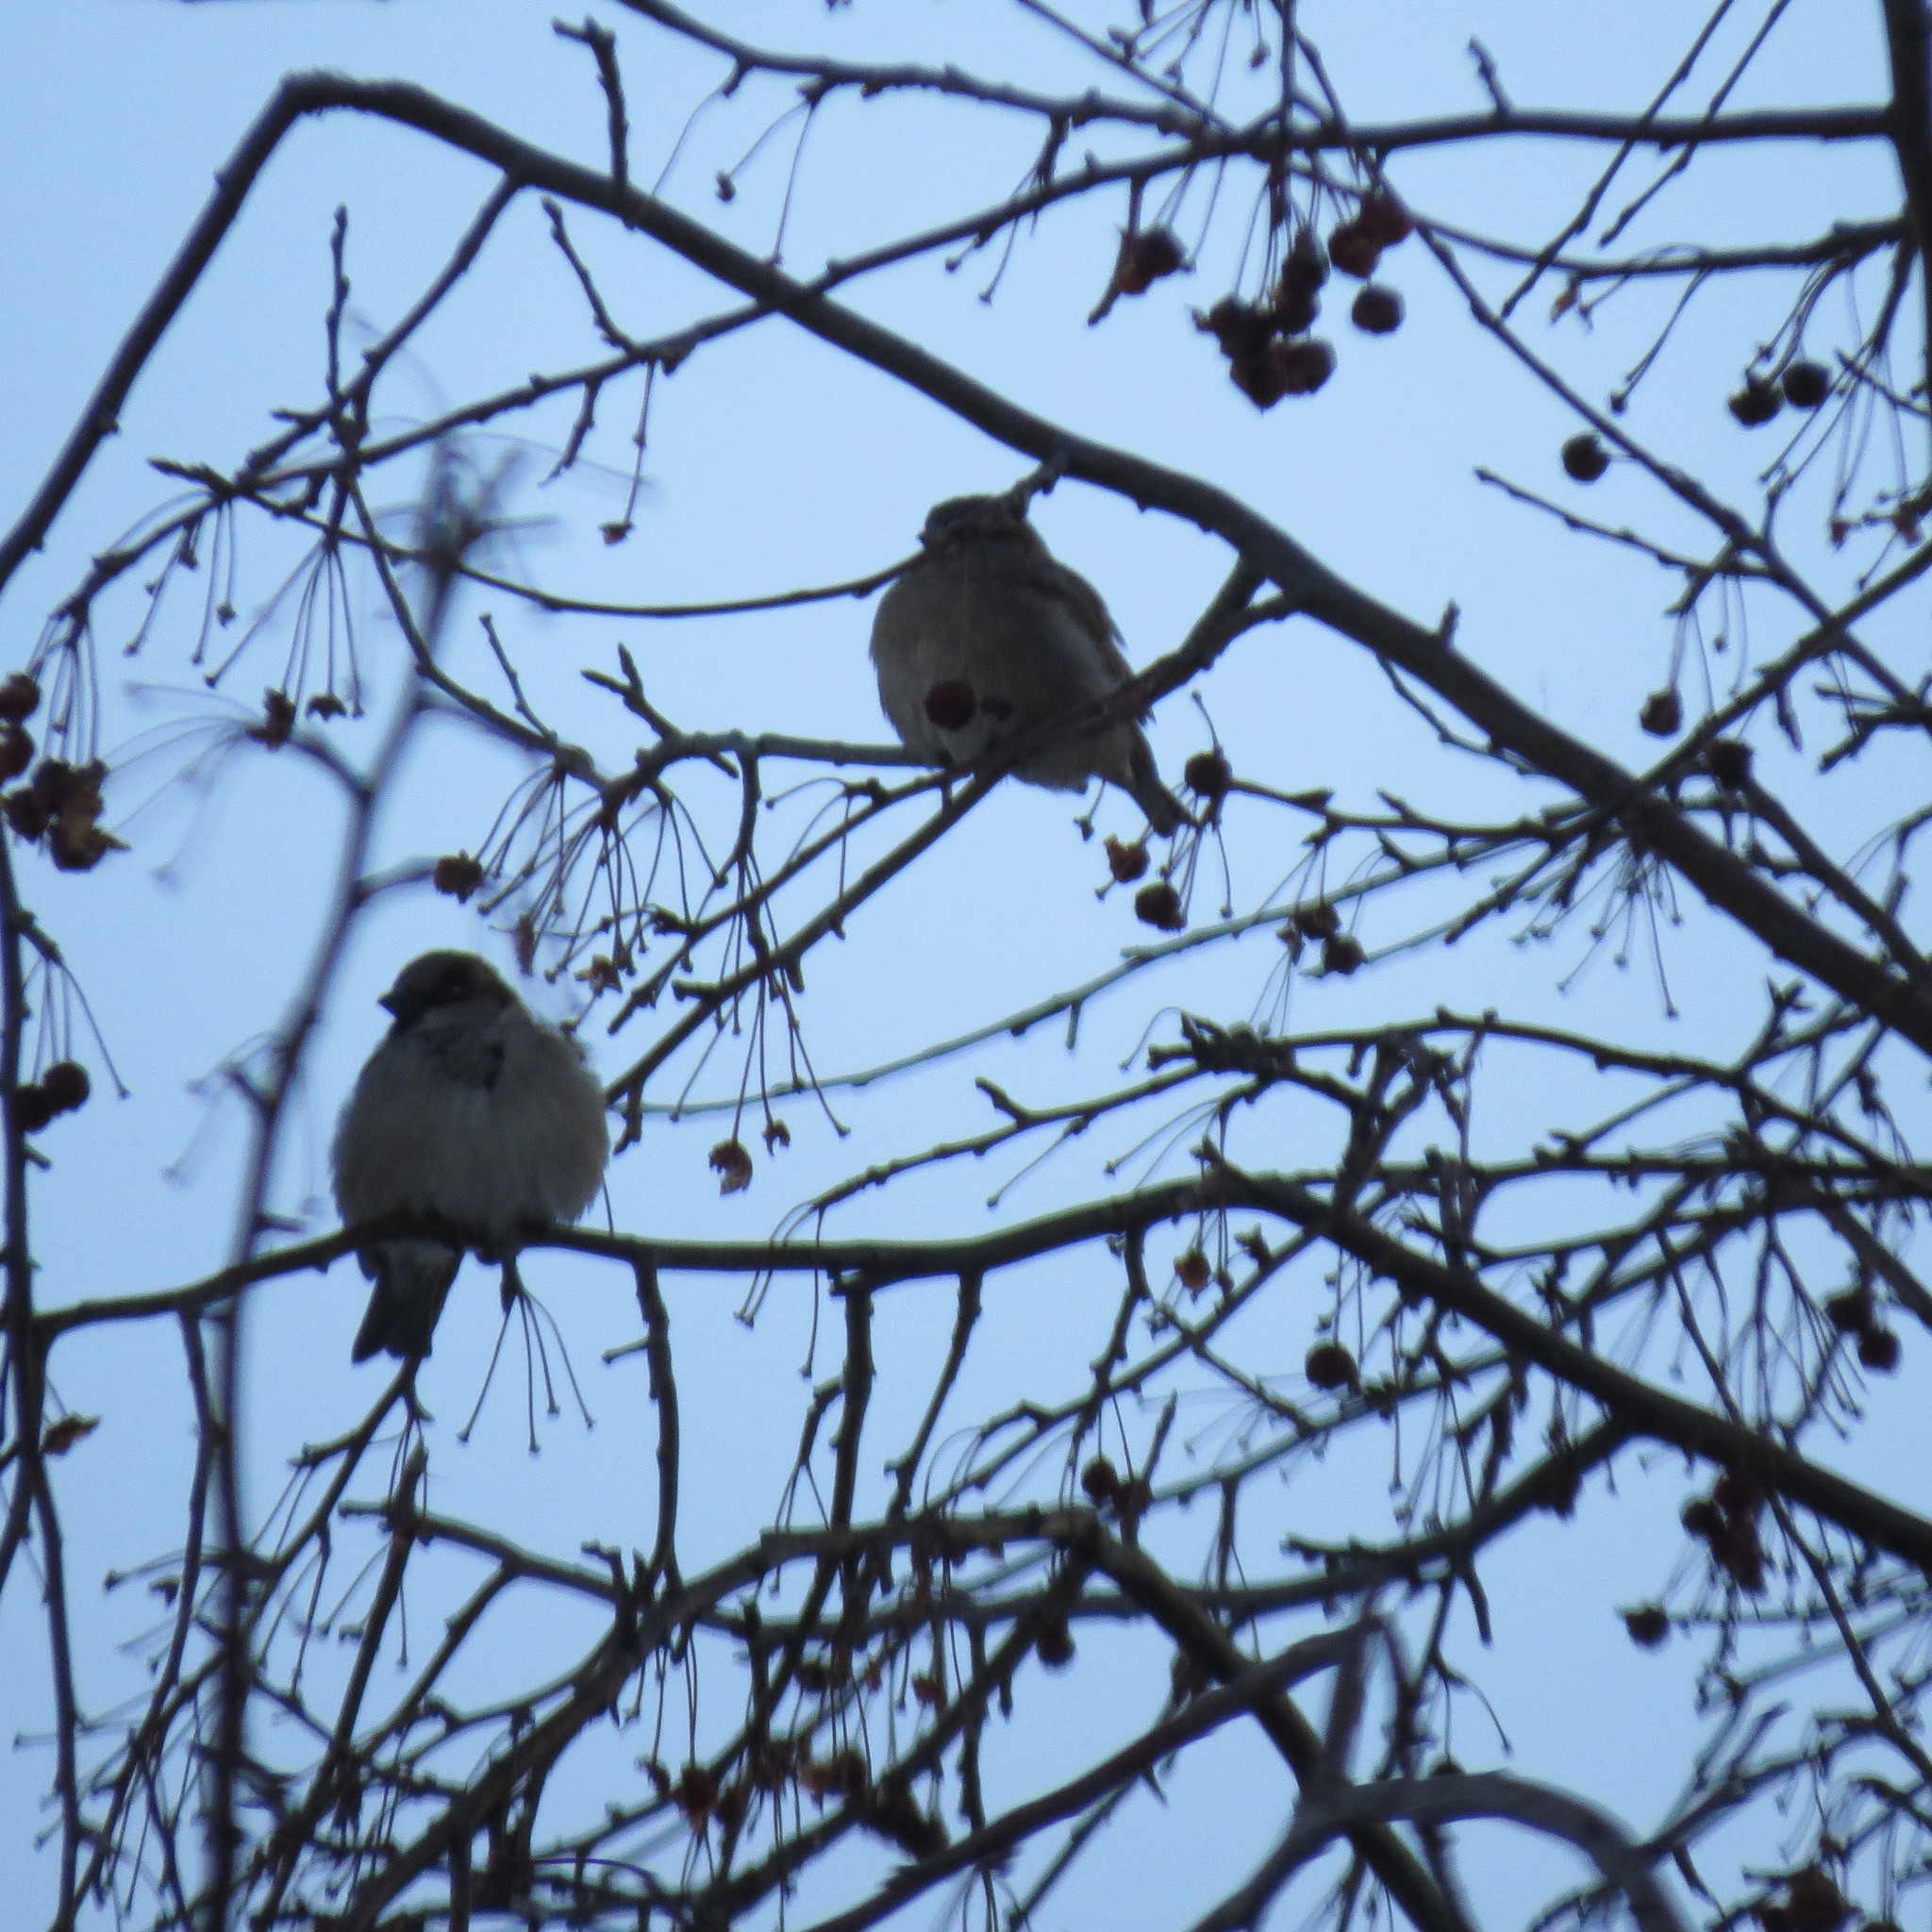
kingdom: Animalia
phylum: Chordata
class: Aves
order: Passeriformes
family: Passeridae
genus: Passer
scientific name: Passer domesticus
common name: House sparrow
